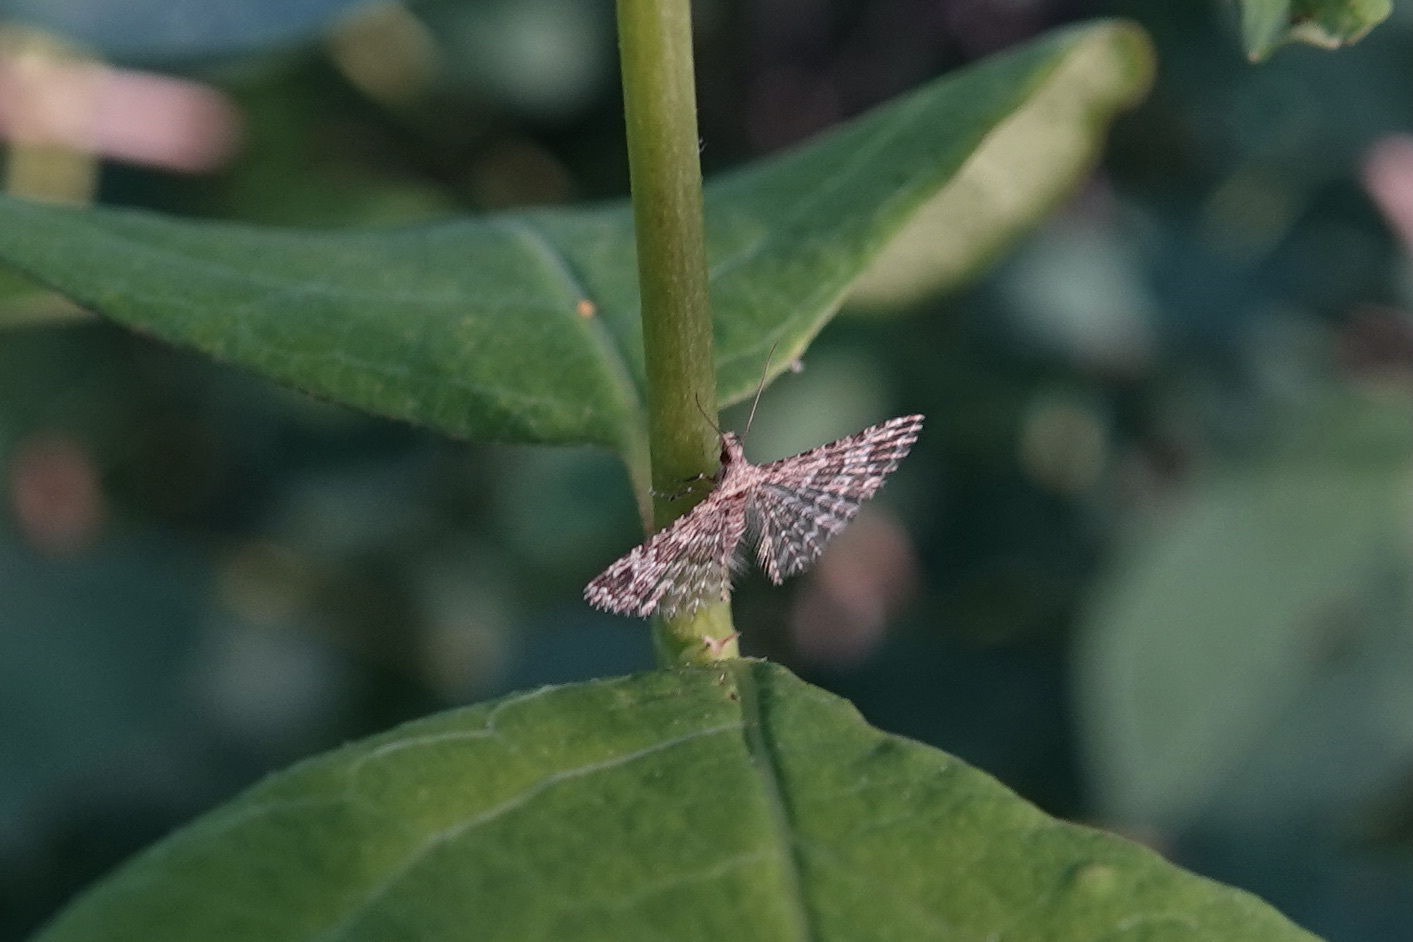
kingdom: Animalia
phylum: Arthropoda
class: Insecta
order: Lepidoptera
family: Alucitidae
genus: Alucita
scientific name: Alucita montana
